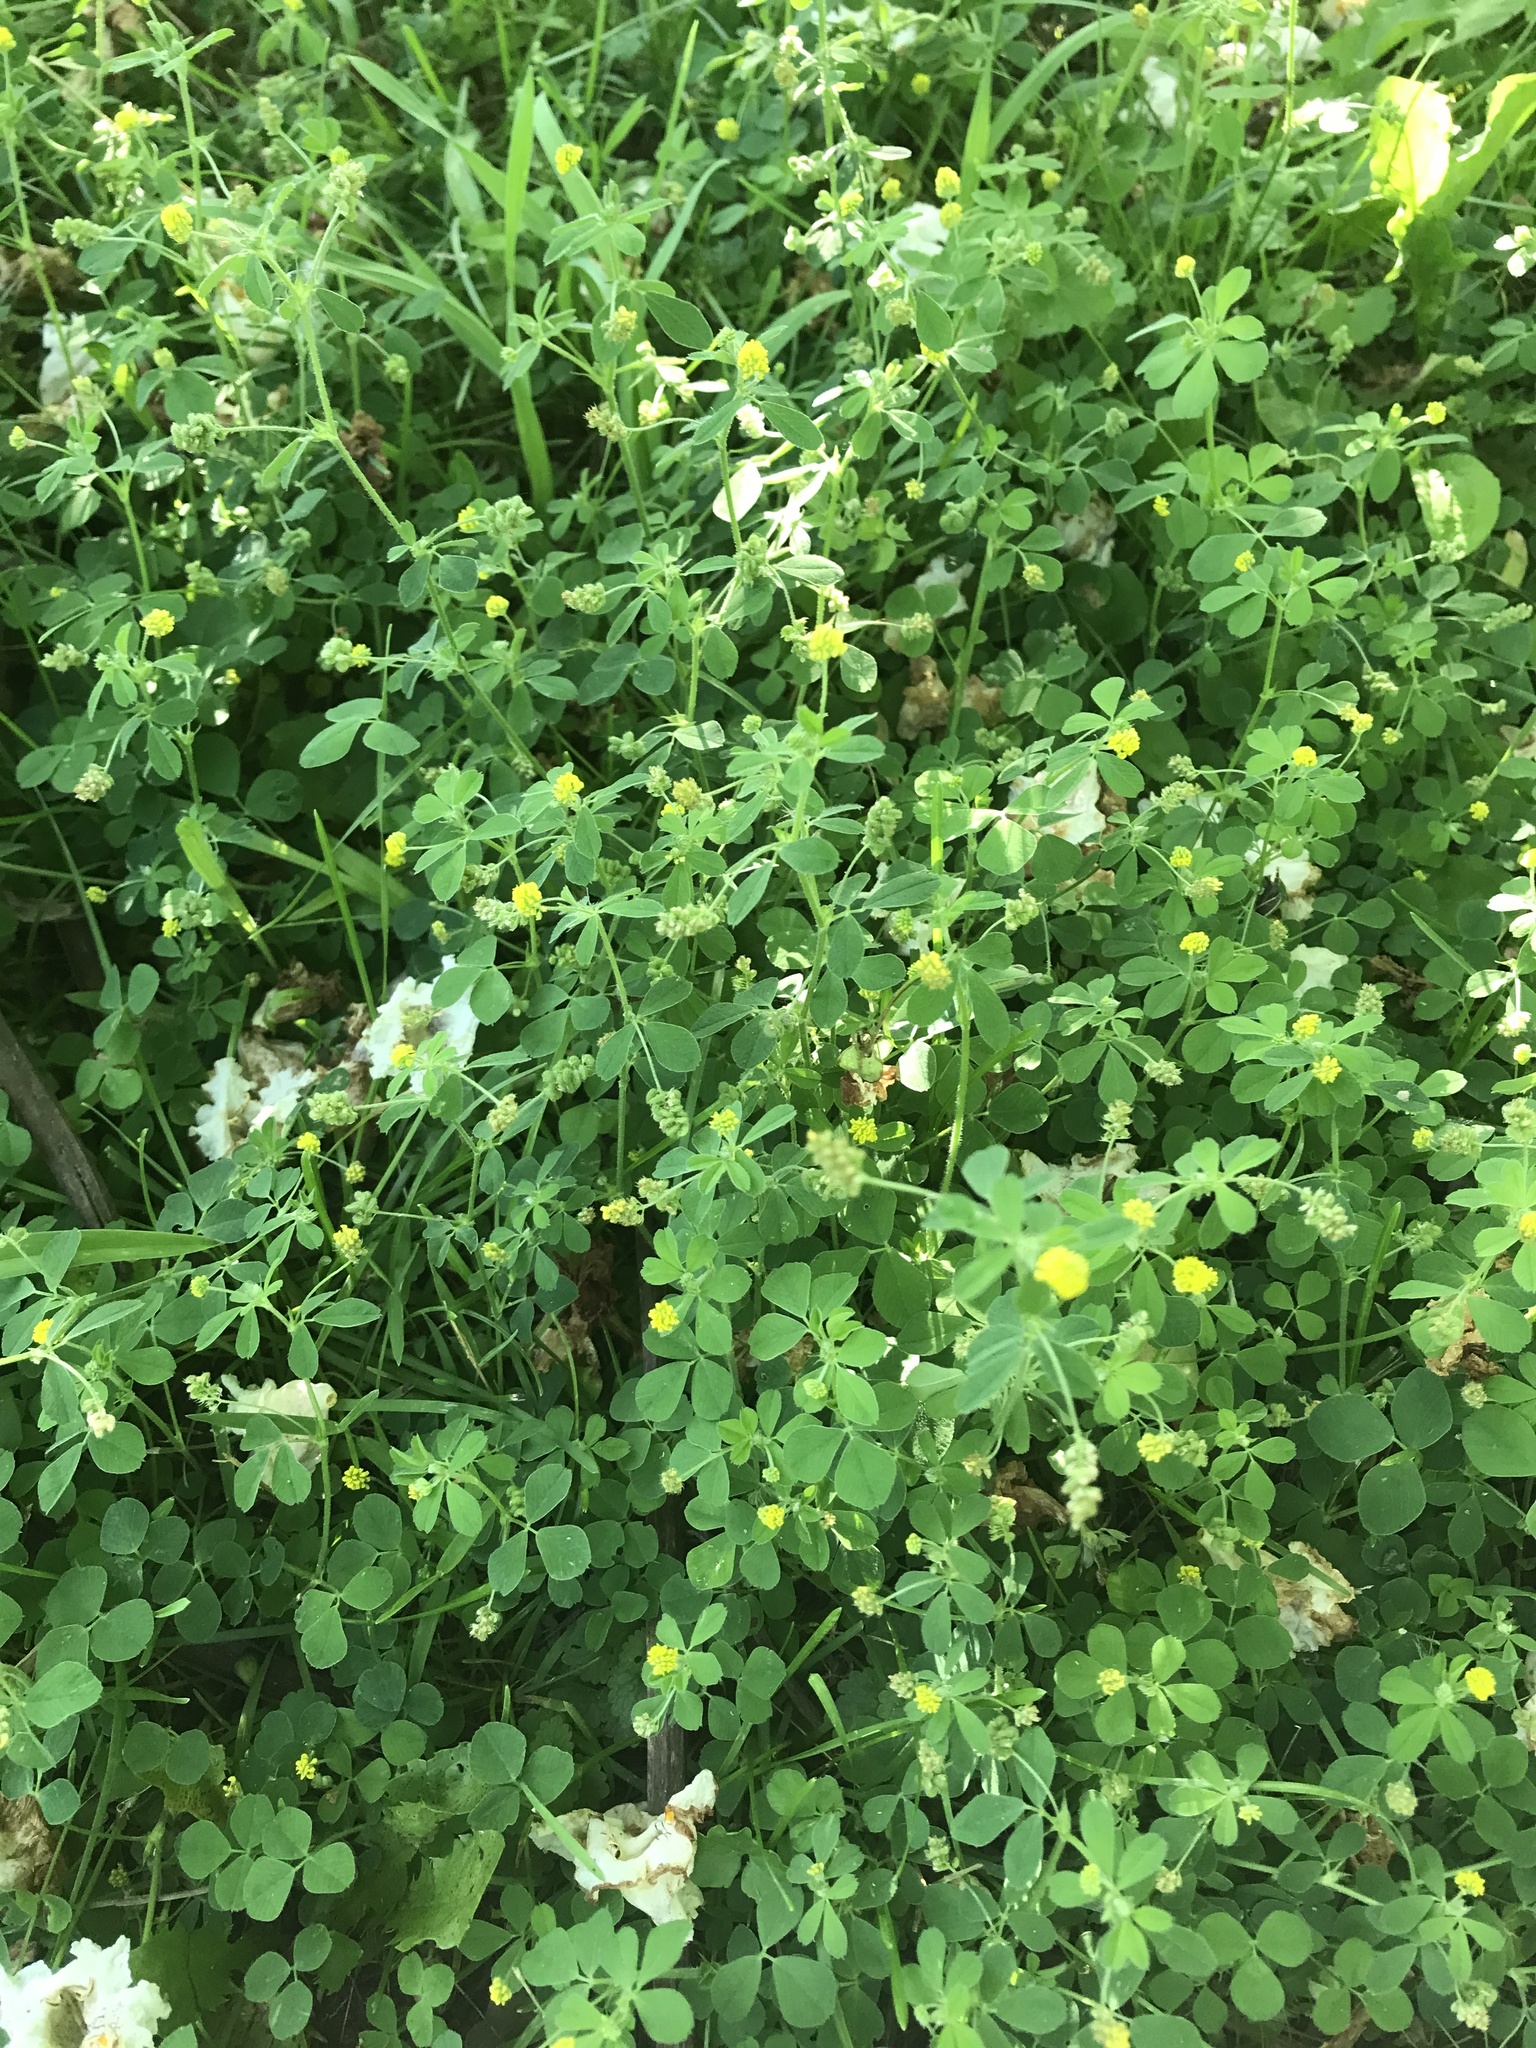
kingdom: Plantae
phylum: Tracheophyta
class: Magnoliopsida
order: Fabales
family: Fabaceae
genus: Medicago
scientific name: Medicago lupulina
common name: Black medick
